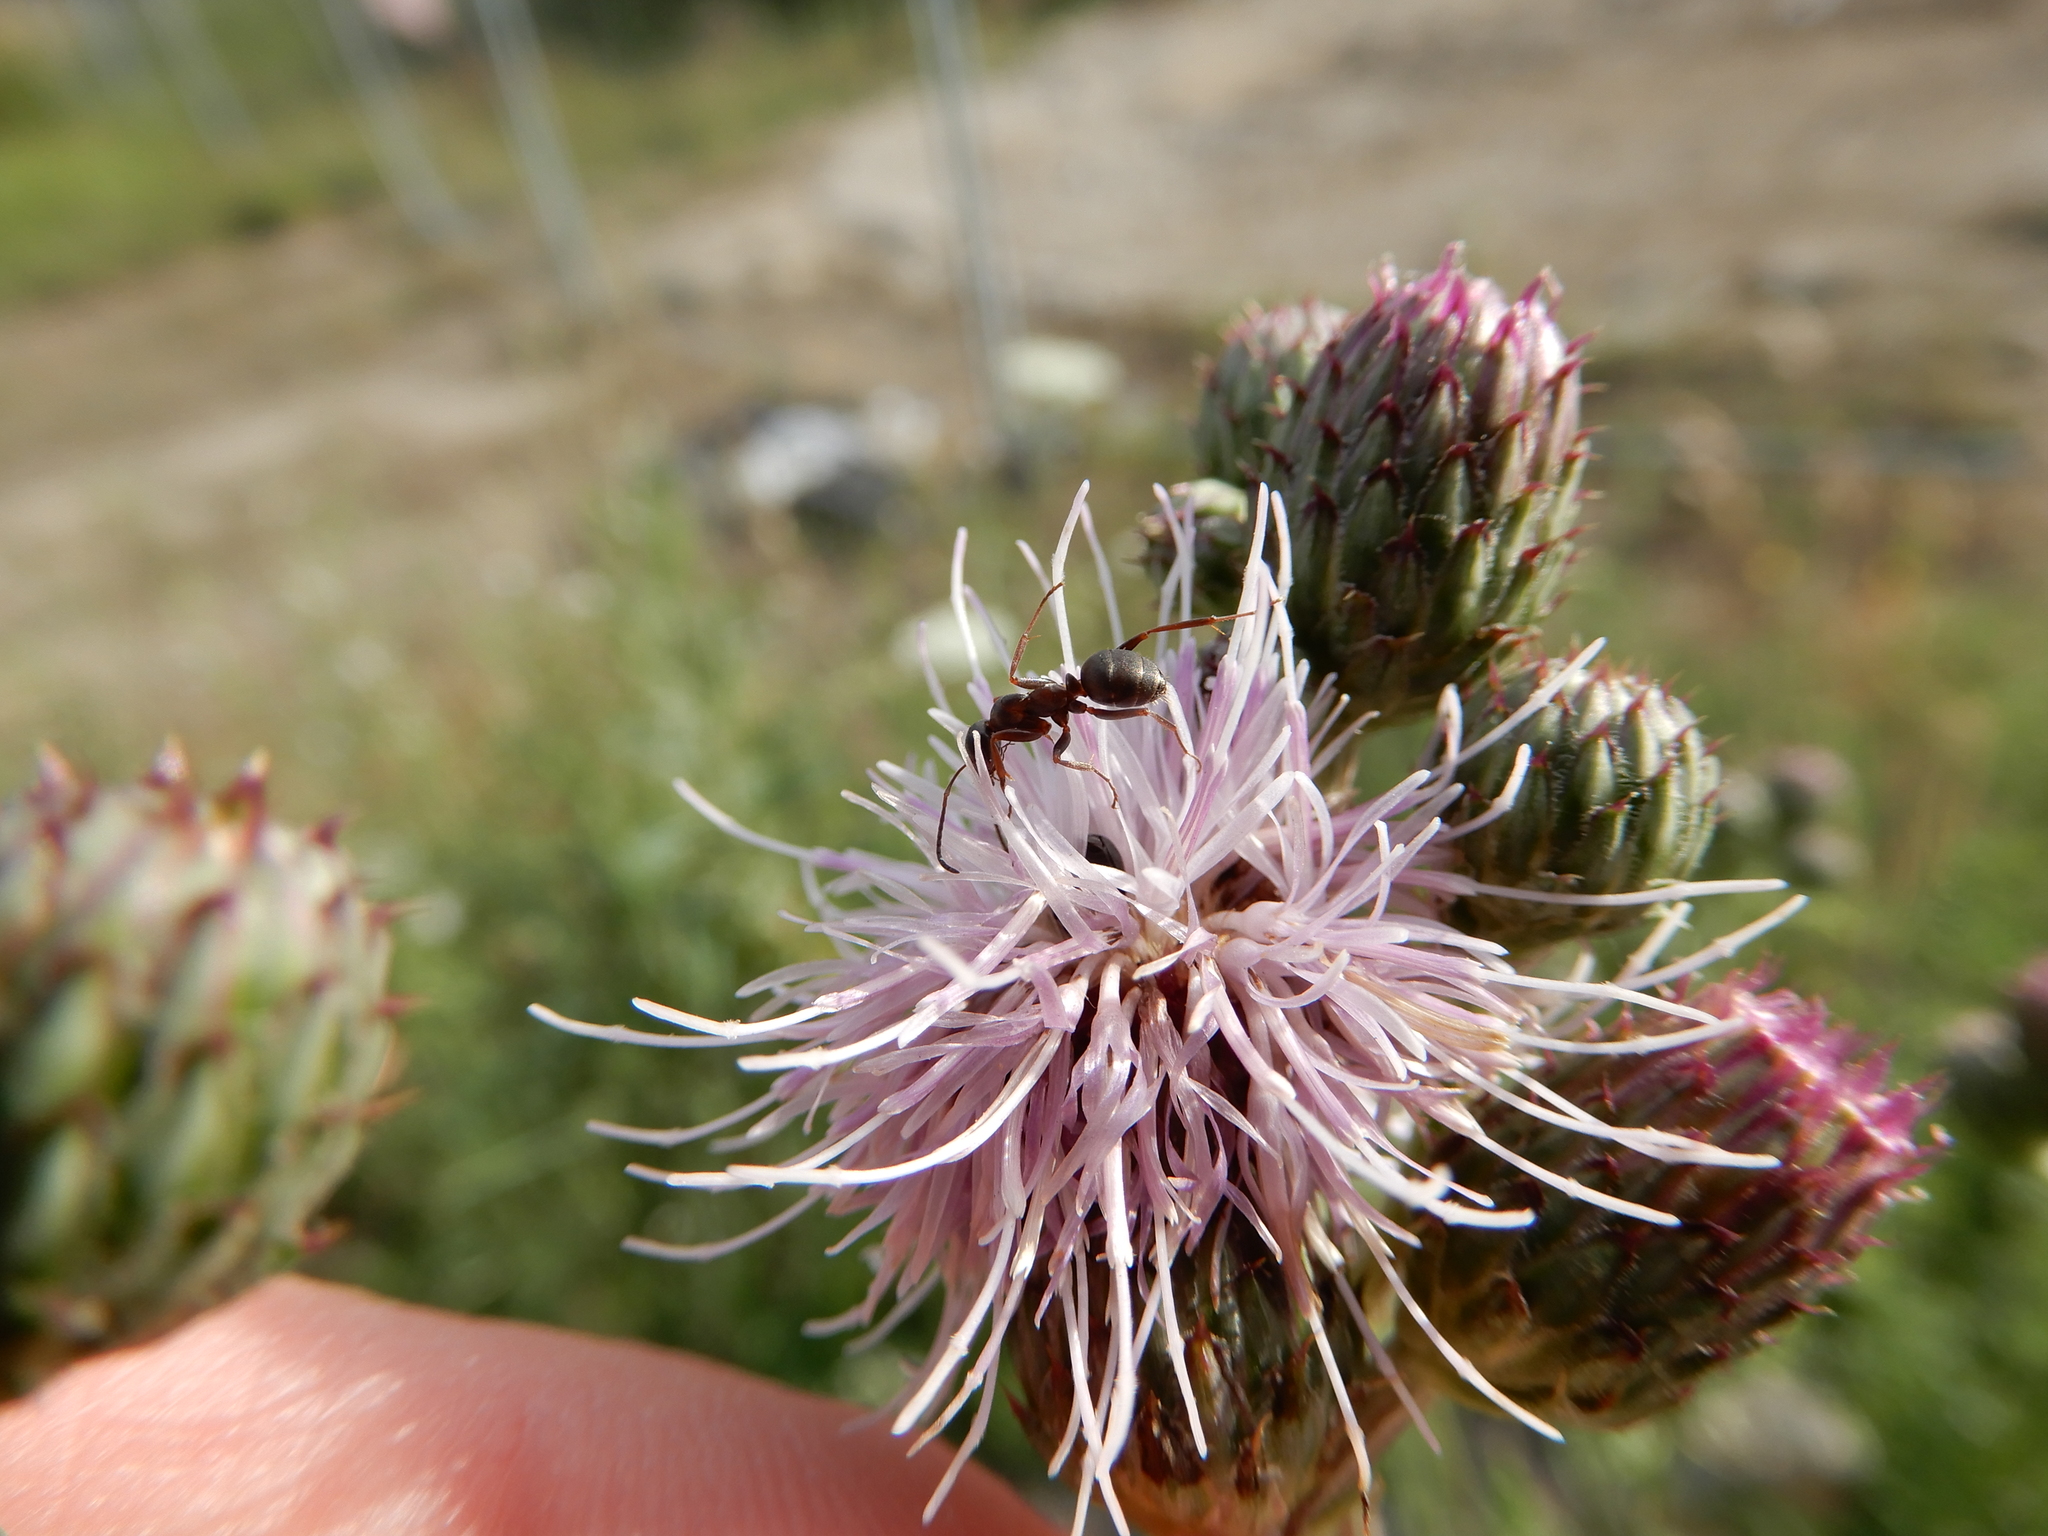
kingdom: Animalia
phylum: Arthropoda
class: Insecta
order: Hymenoptera
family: Formicidae
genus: Formica
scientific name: Formica cunicularia
